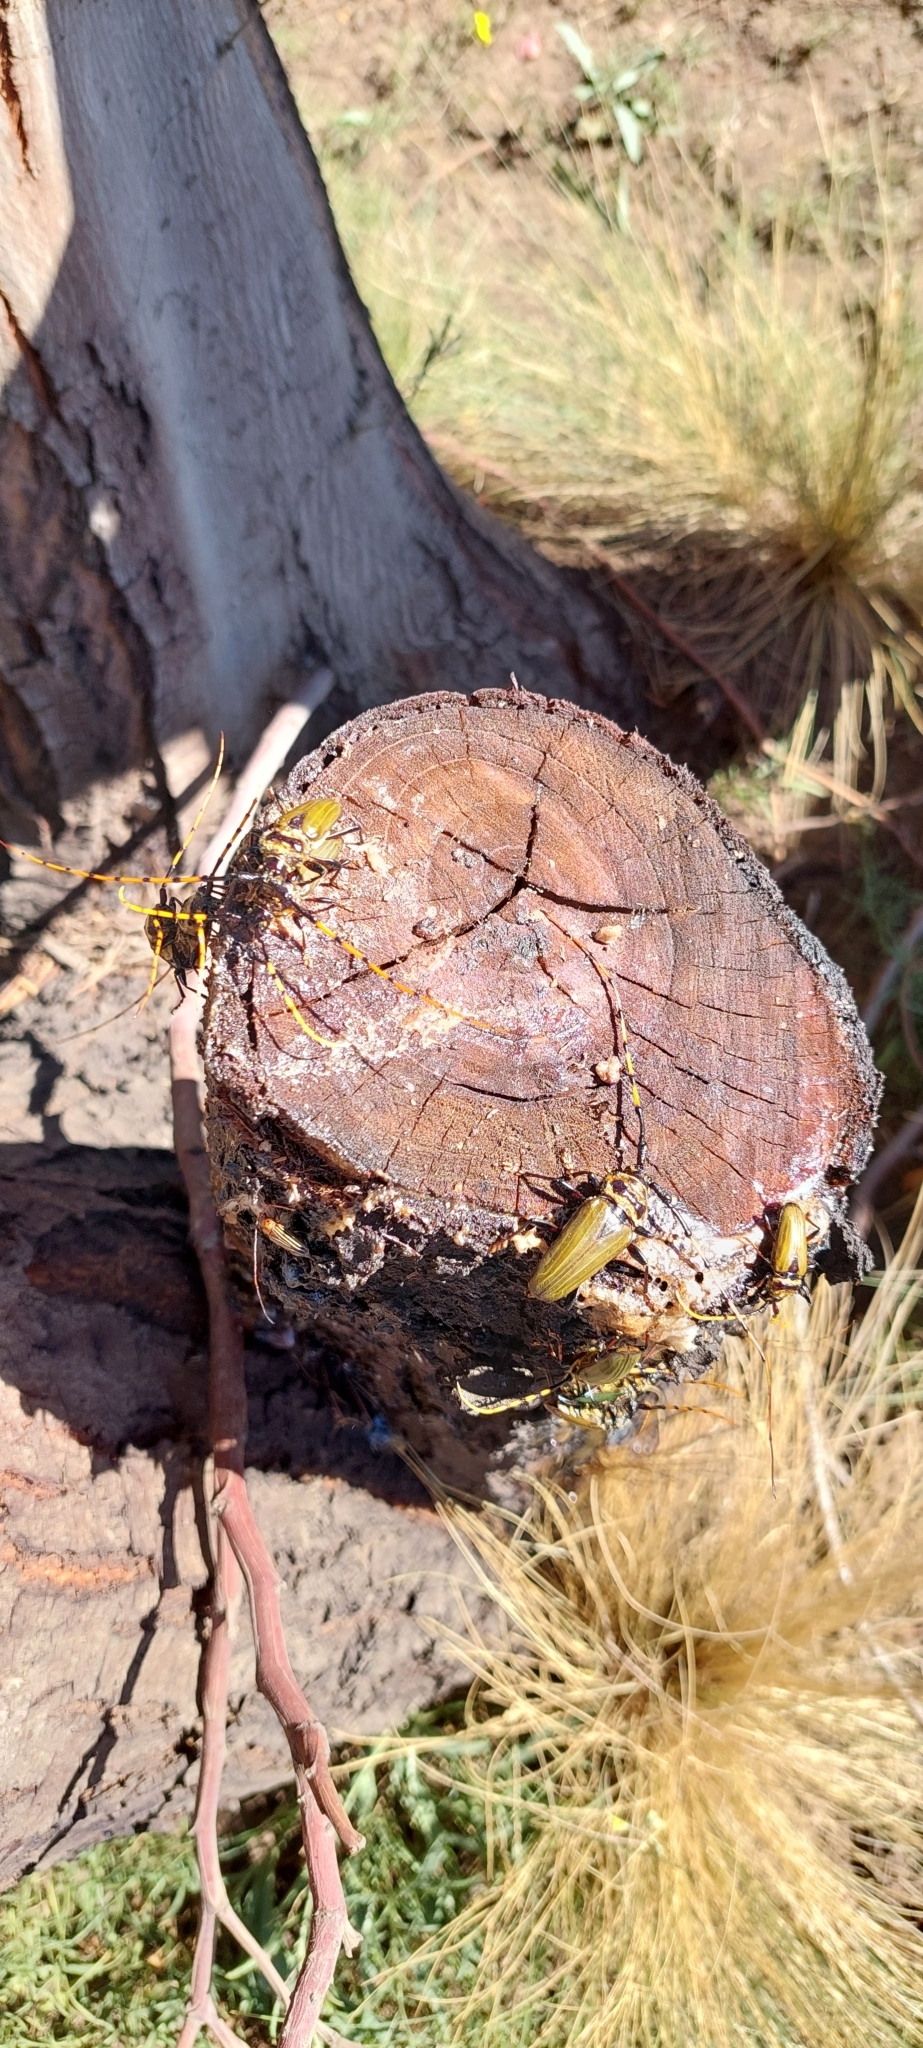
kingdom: Animalia
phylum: Arthropoda
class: Insecta
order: Coleoptera
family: Cerambycidae
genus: Retrachydes
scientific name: Retrachydes thoracicus
